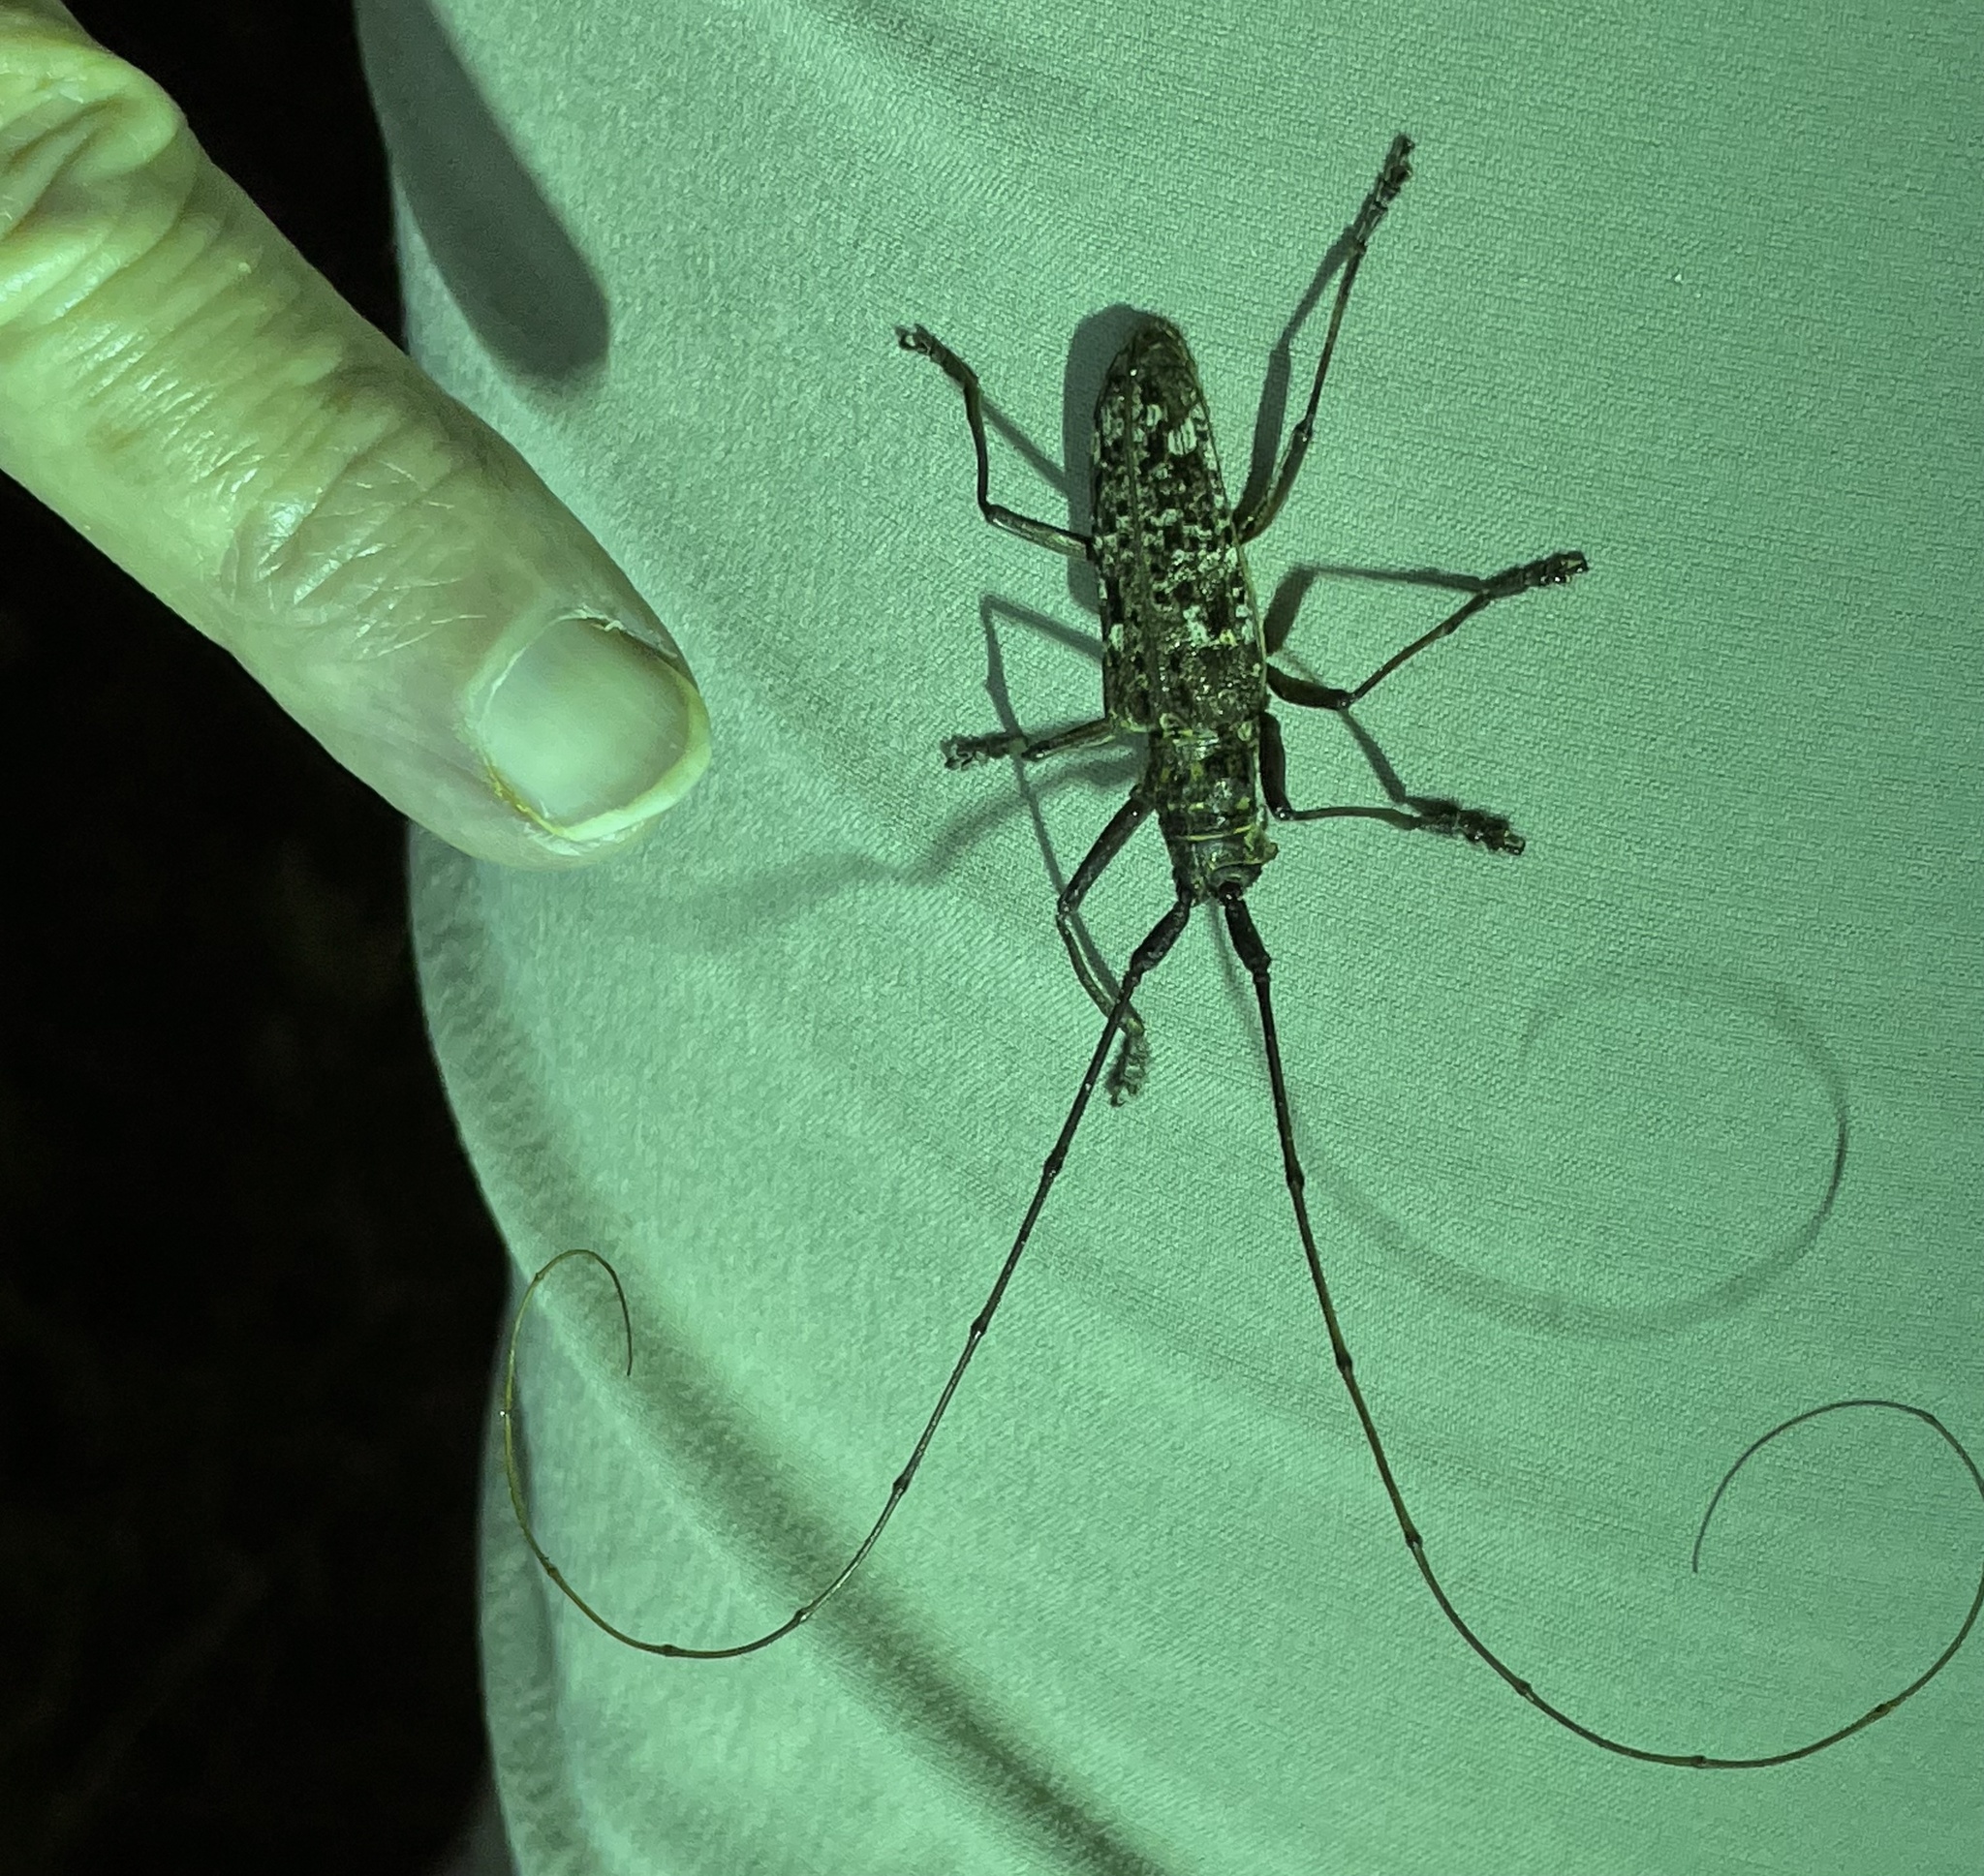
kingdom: Animalia
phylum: Arthropoda
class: Insecta
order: Coleoptera
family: Cerambycidae
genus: Monochamus
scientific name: Monochamus notatus
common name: Northeastern pine sawyer beetle
